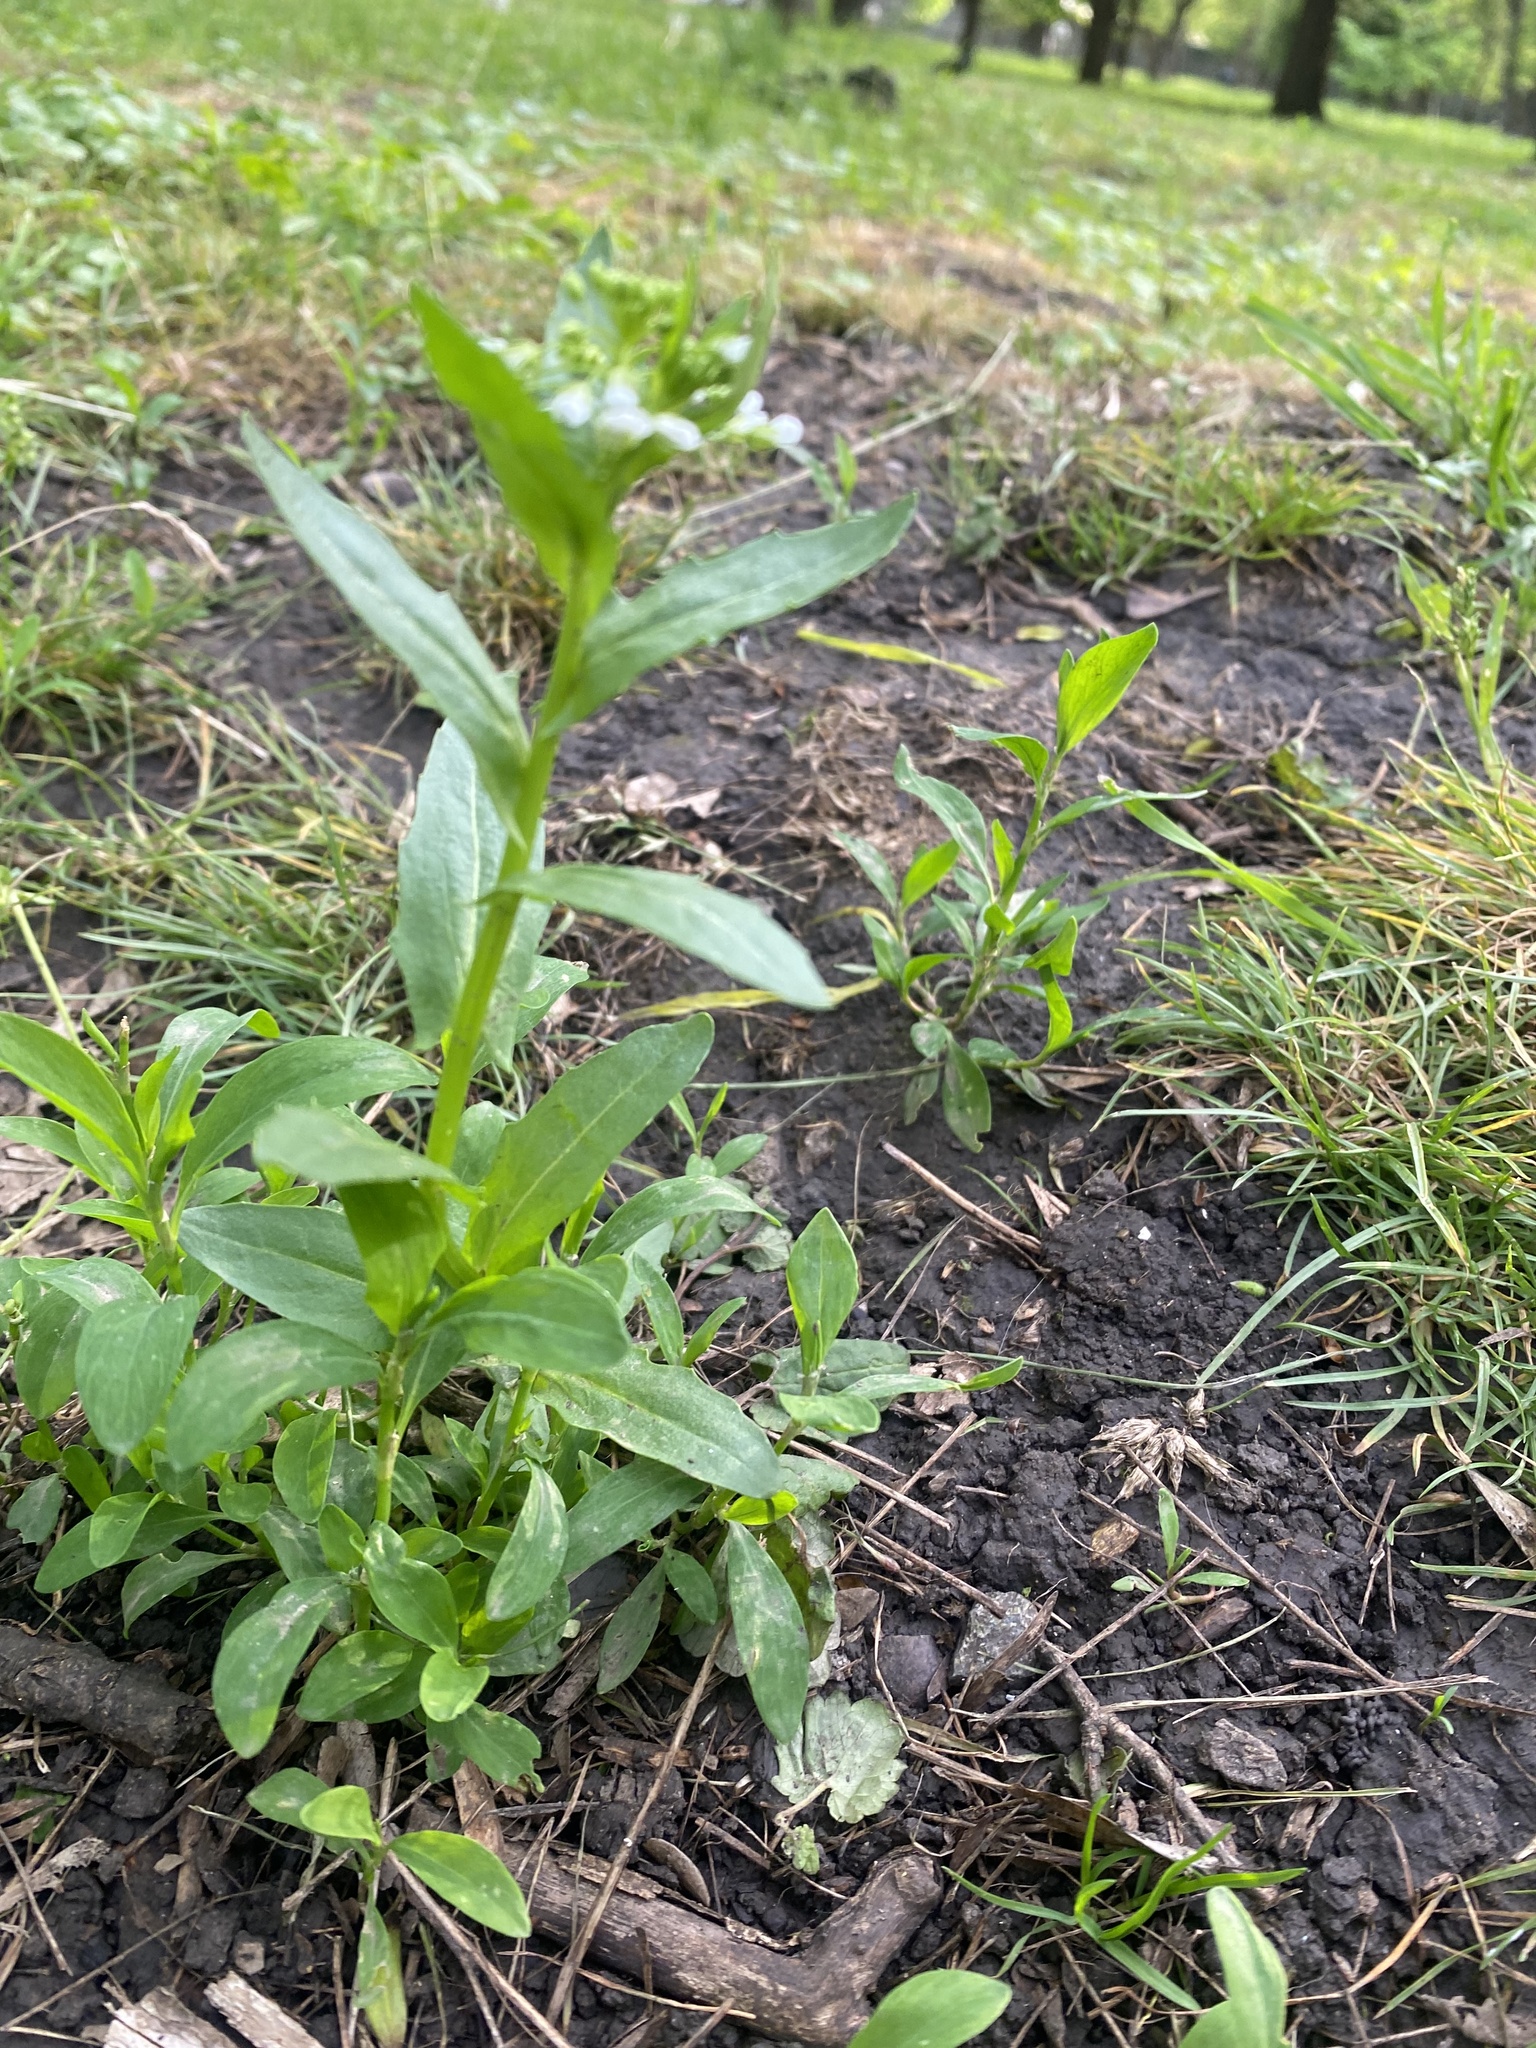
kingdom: Plantae
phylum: Tracheophyta
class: Magnoliopsida
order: Brassicales
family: Brassicaceae
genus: Thlaspi
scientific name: Thlaspi arvense
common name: Field pennycress
